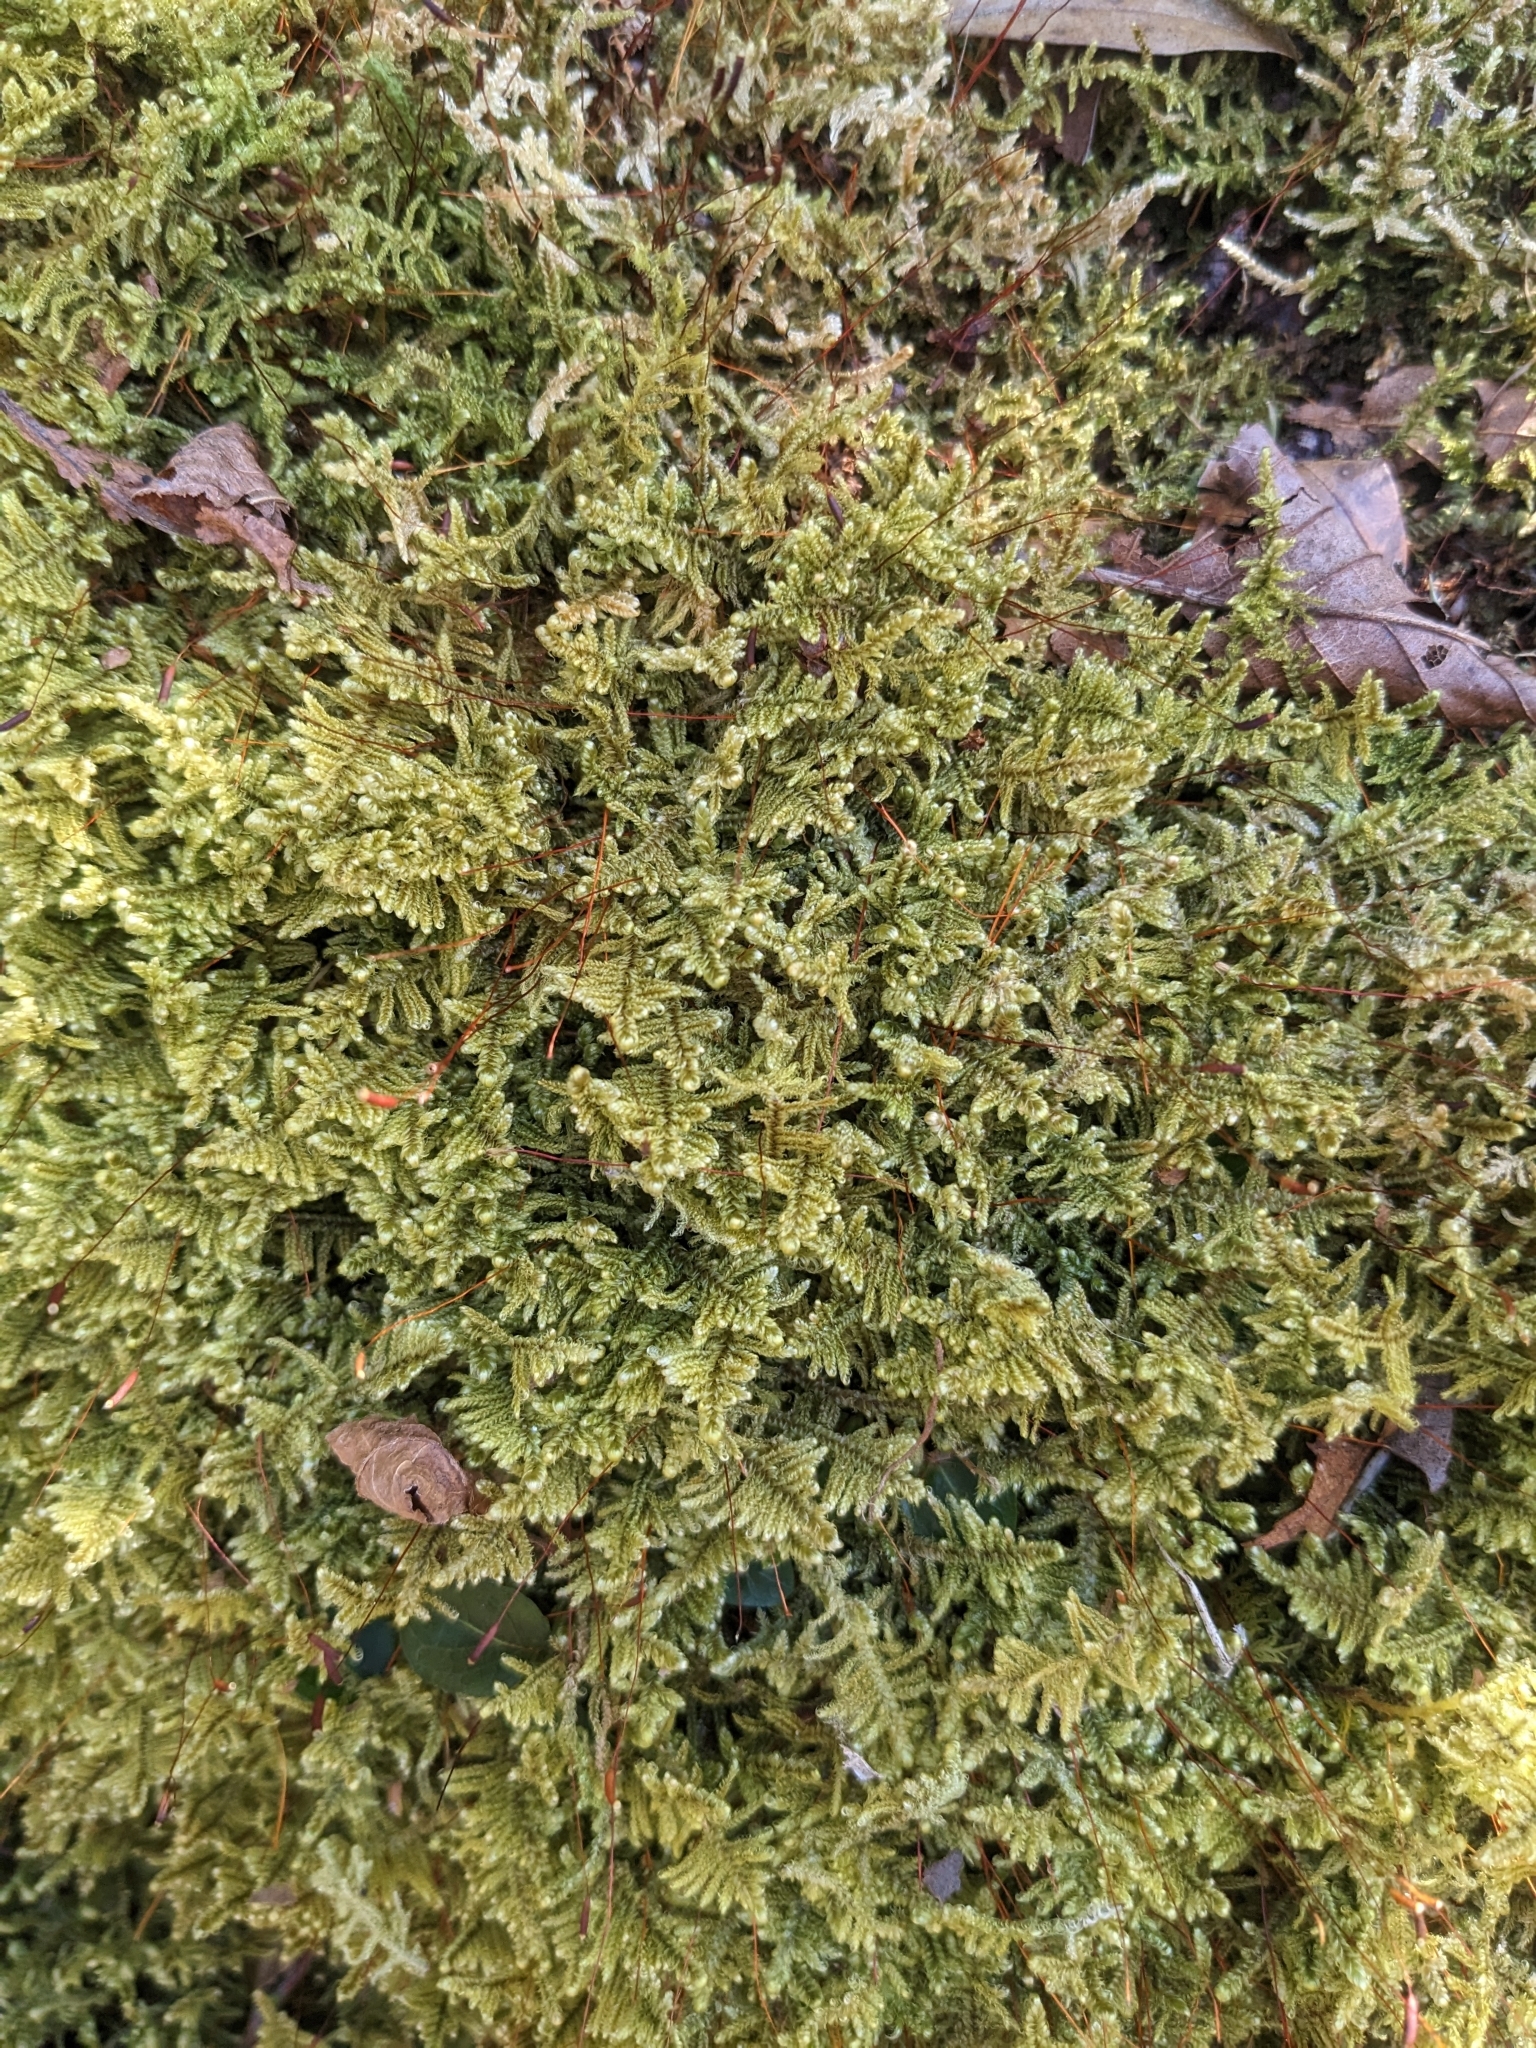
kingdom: Plantae
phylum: Bryophyta
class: Bryopsida
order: Hypnales
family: Callicladiaceae
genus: Callicladium
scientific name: Callicladium imponens
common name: Brocade moss
